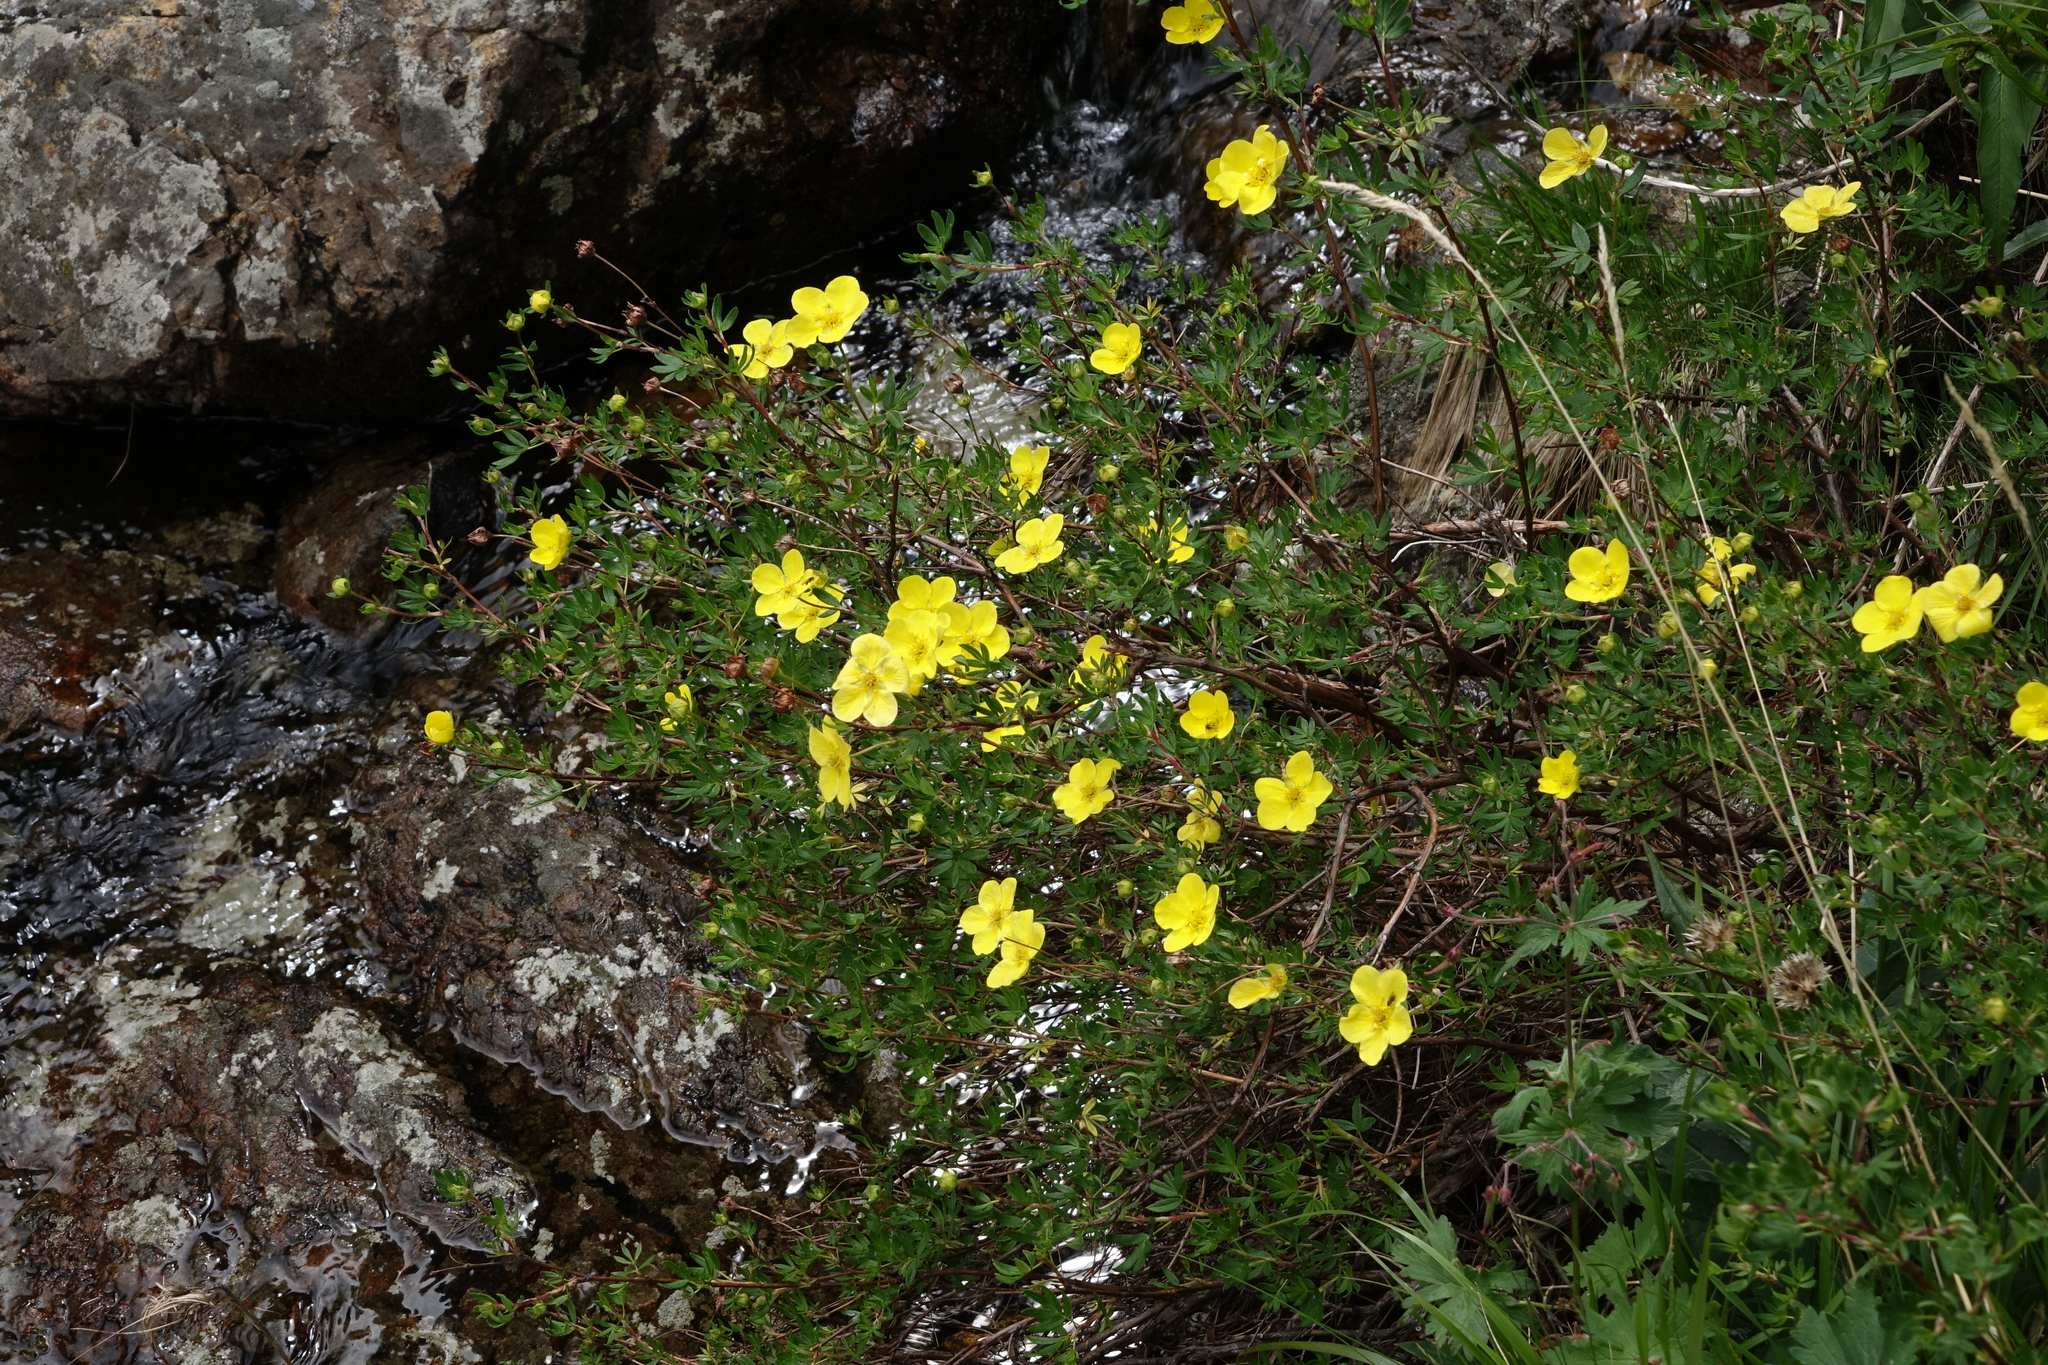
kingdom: Plantae
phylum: Tracheophyta
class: Magnoliopsida
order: Rosales
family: Rosaceae
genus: Dasiphora
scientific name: Dasiphora fruticosa
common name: Shrubby cinquefoil
